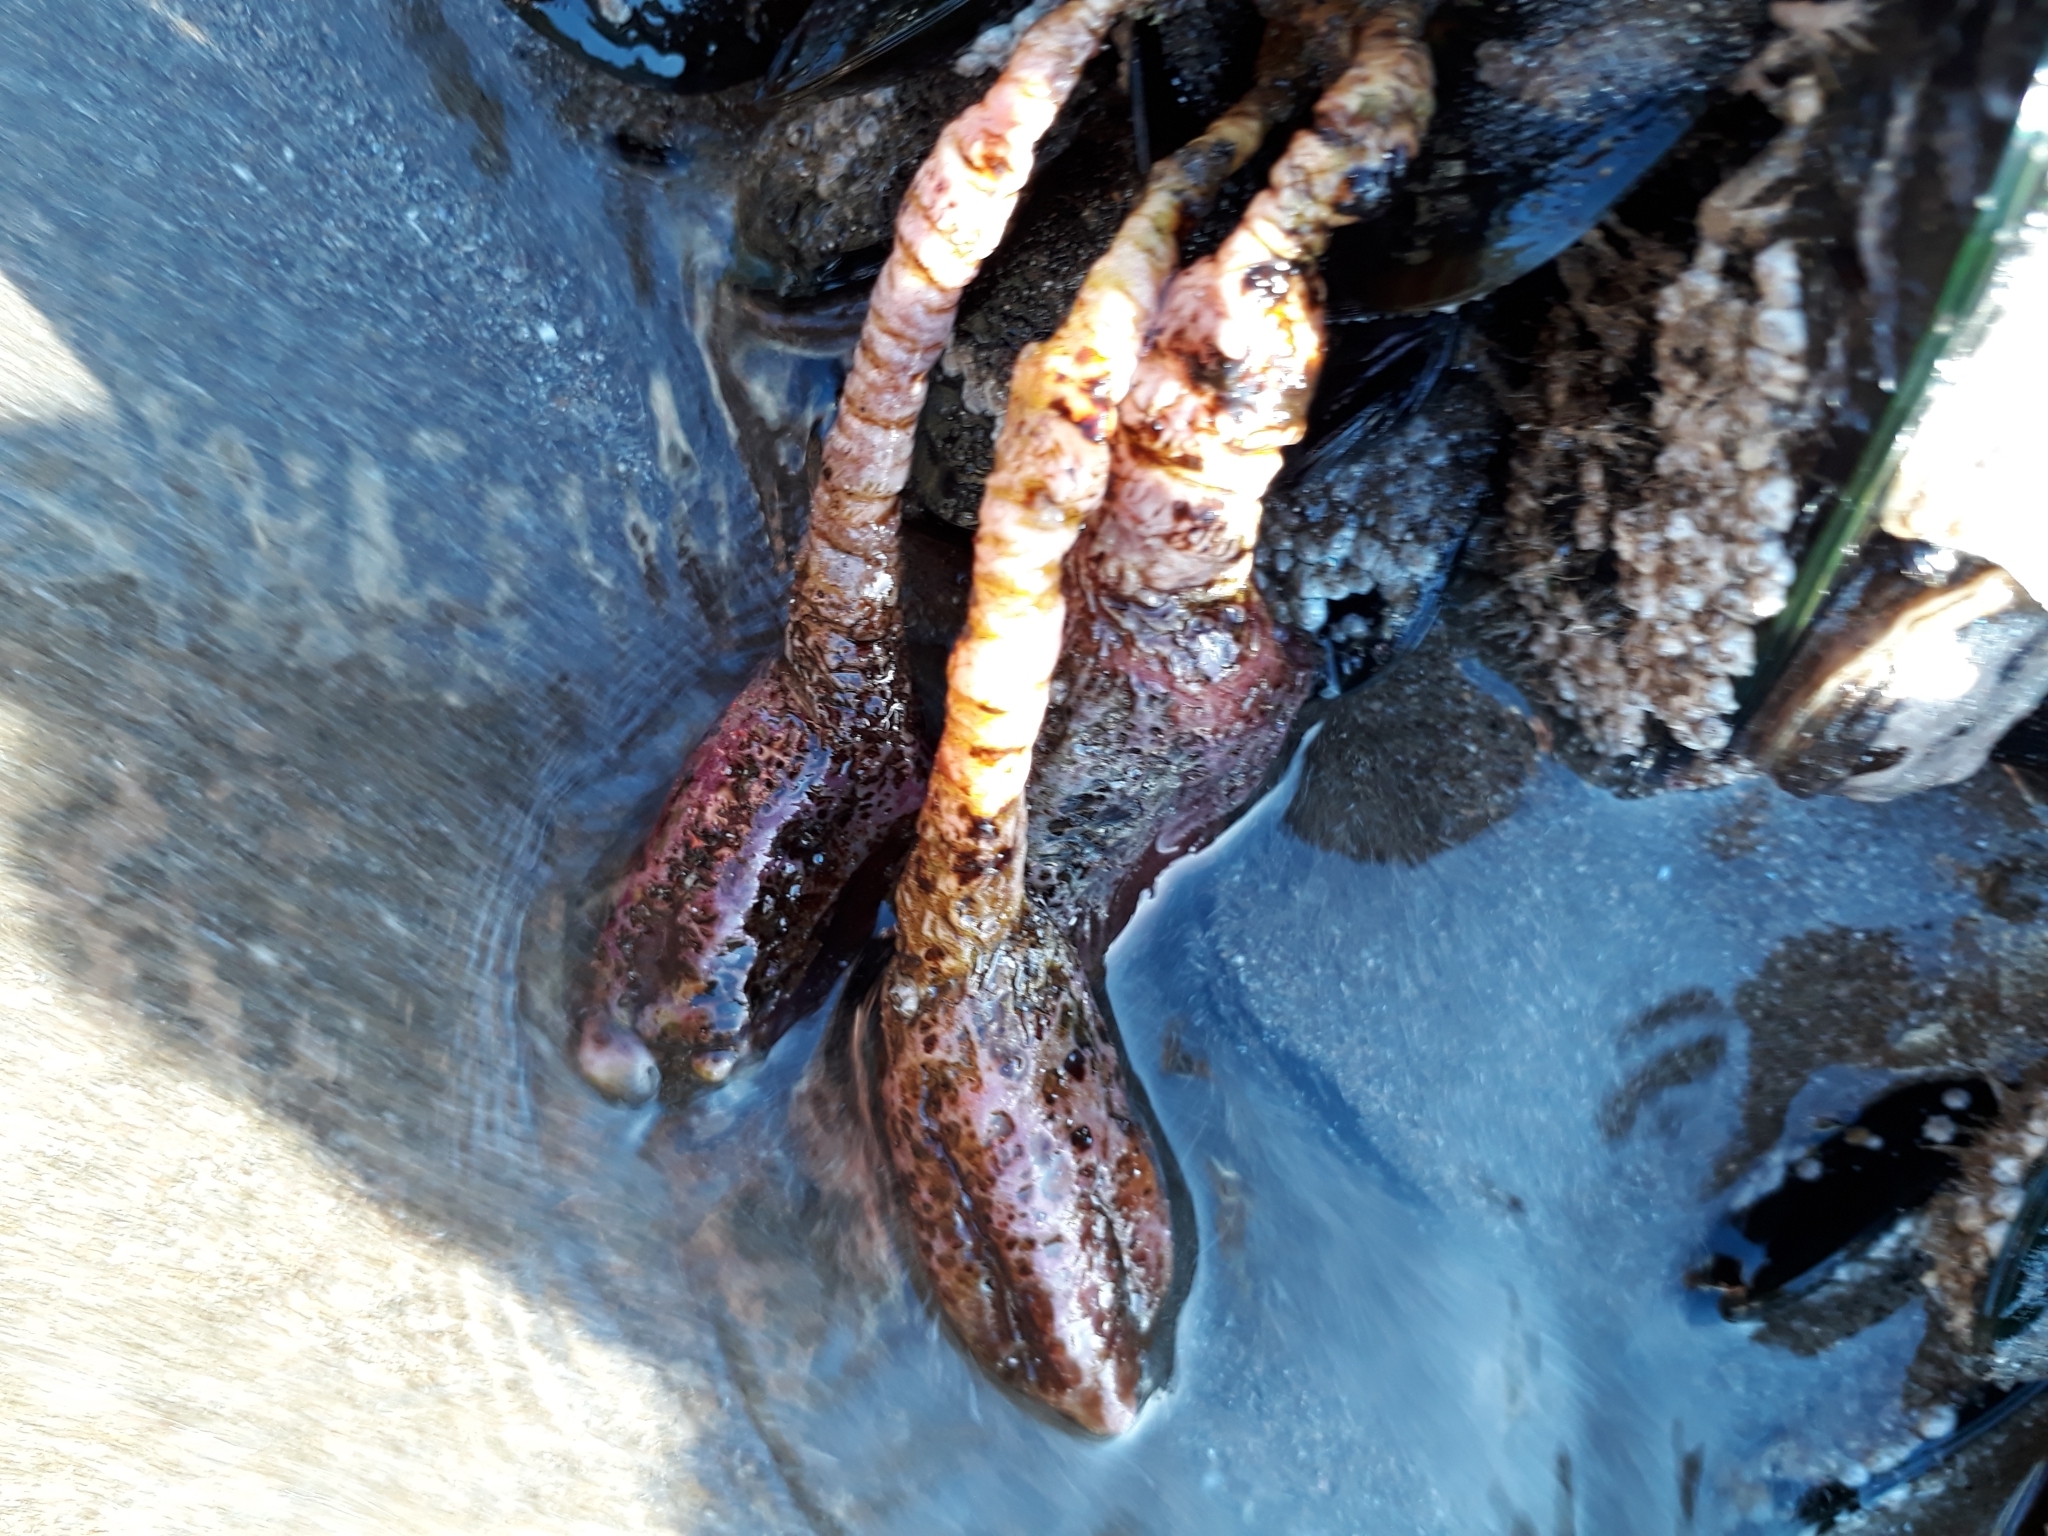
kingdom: Animalia
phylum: Chordata
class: Ascidiacea
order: Stolidobranchia
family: Pyuridae
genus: Pyura
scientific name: Pyura pachydermatina
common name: Sea tulip
